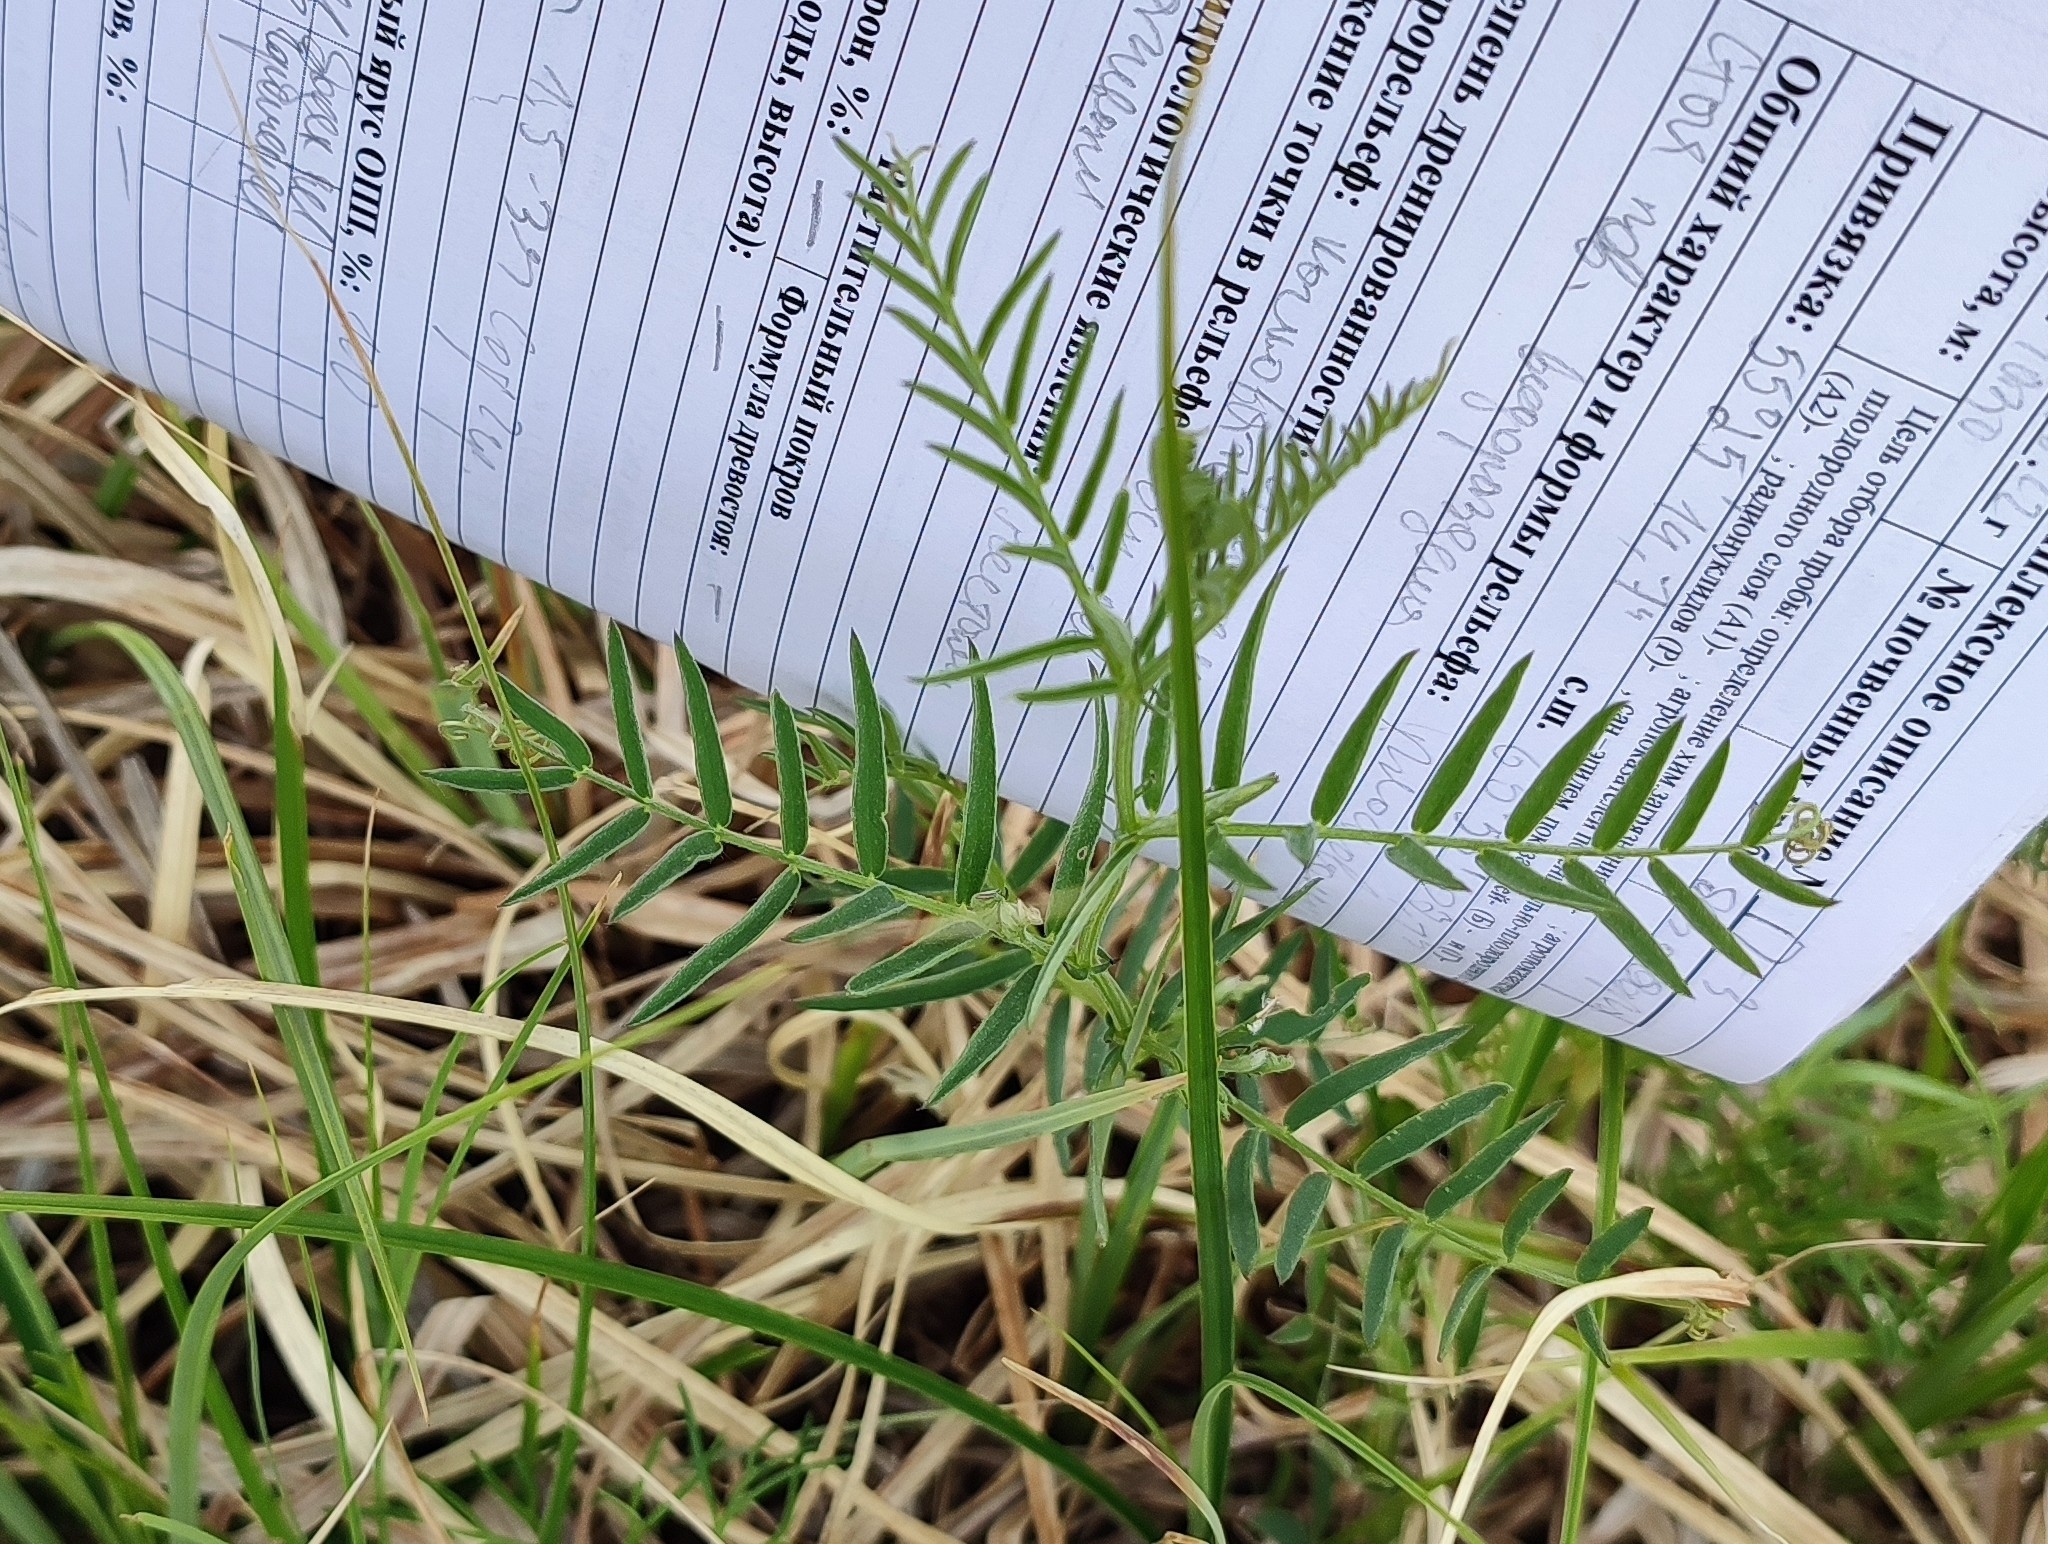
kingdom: Plantae
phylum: Tracheophyta
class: Magnoliopsida
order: Fabales
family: Fabaceae
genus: Vicia
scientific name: Vicia cracca
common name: Bird vetch
